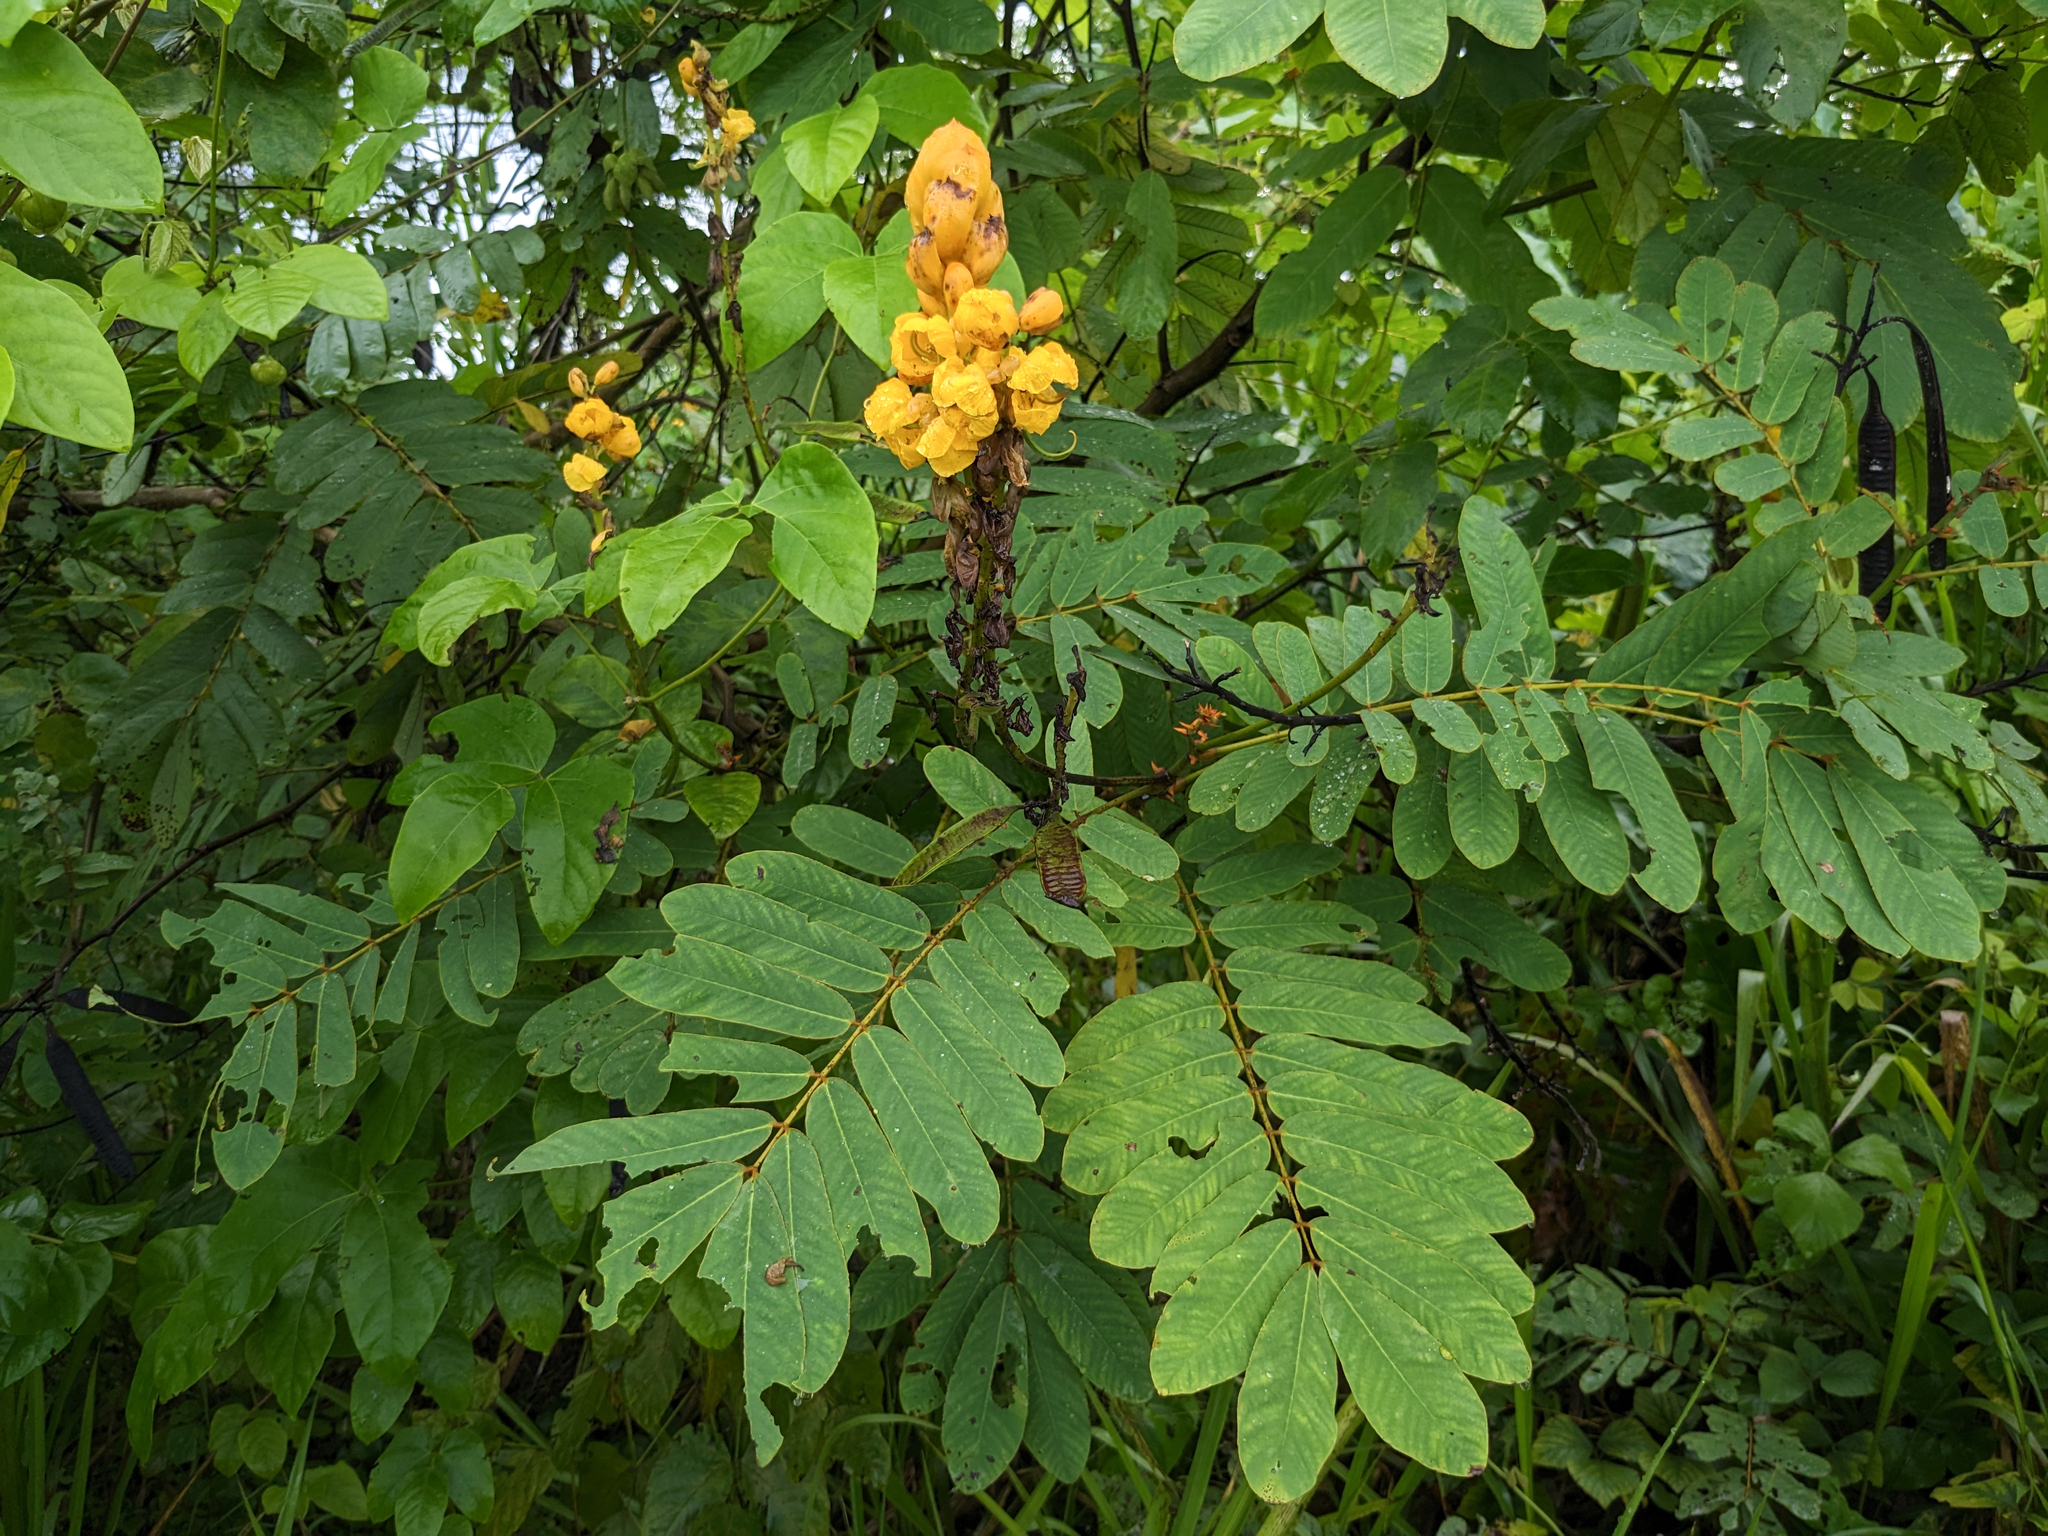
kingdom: Plantae
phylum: Tracheophyta
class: Magnoliopsida
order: Fabales
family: Fabaceae
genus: Senna
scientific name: Senna reticulata
